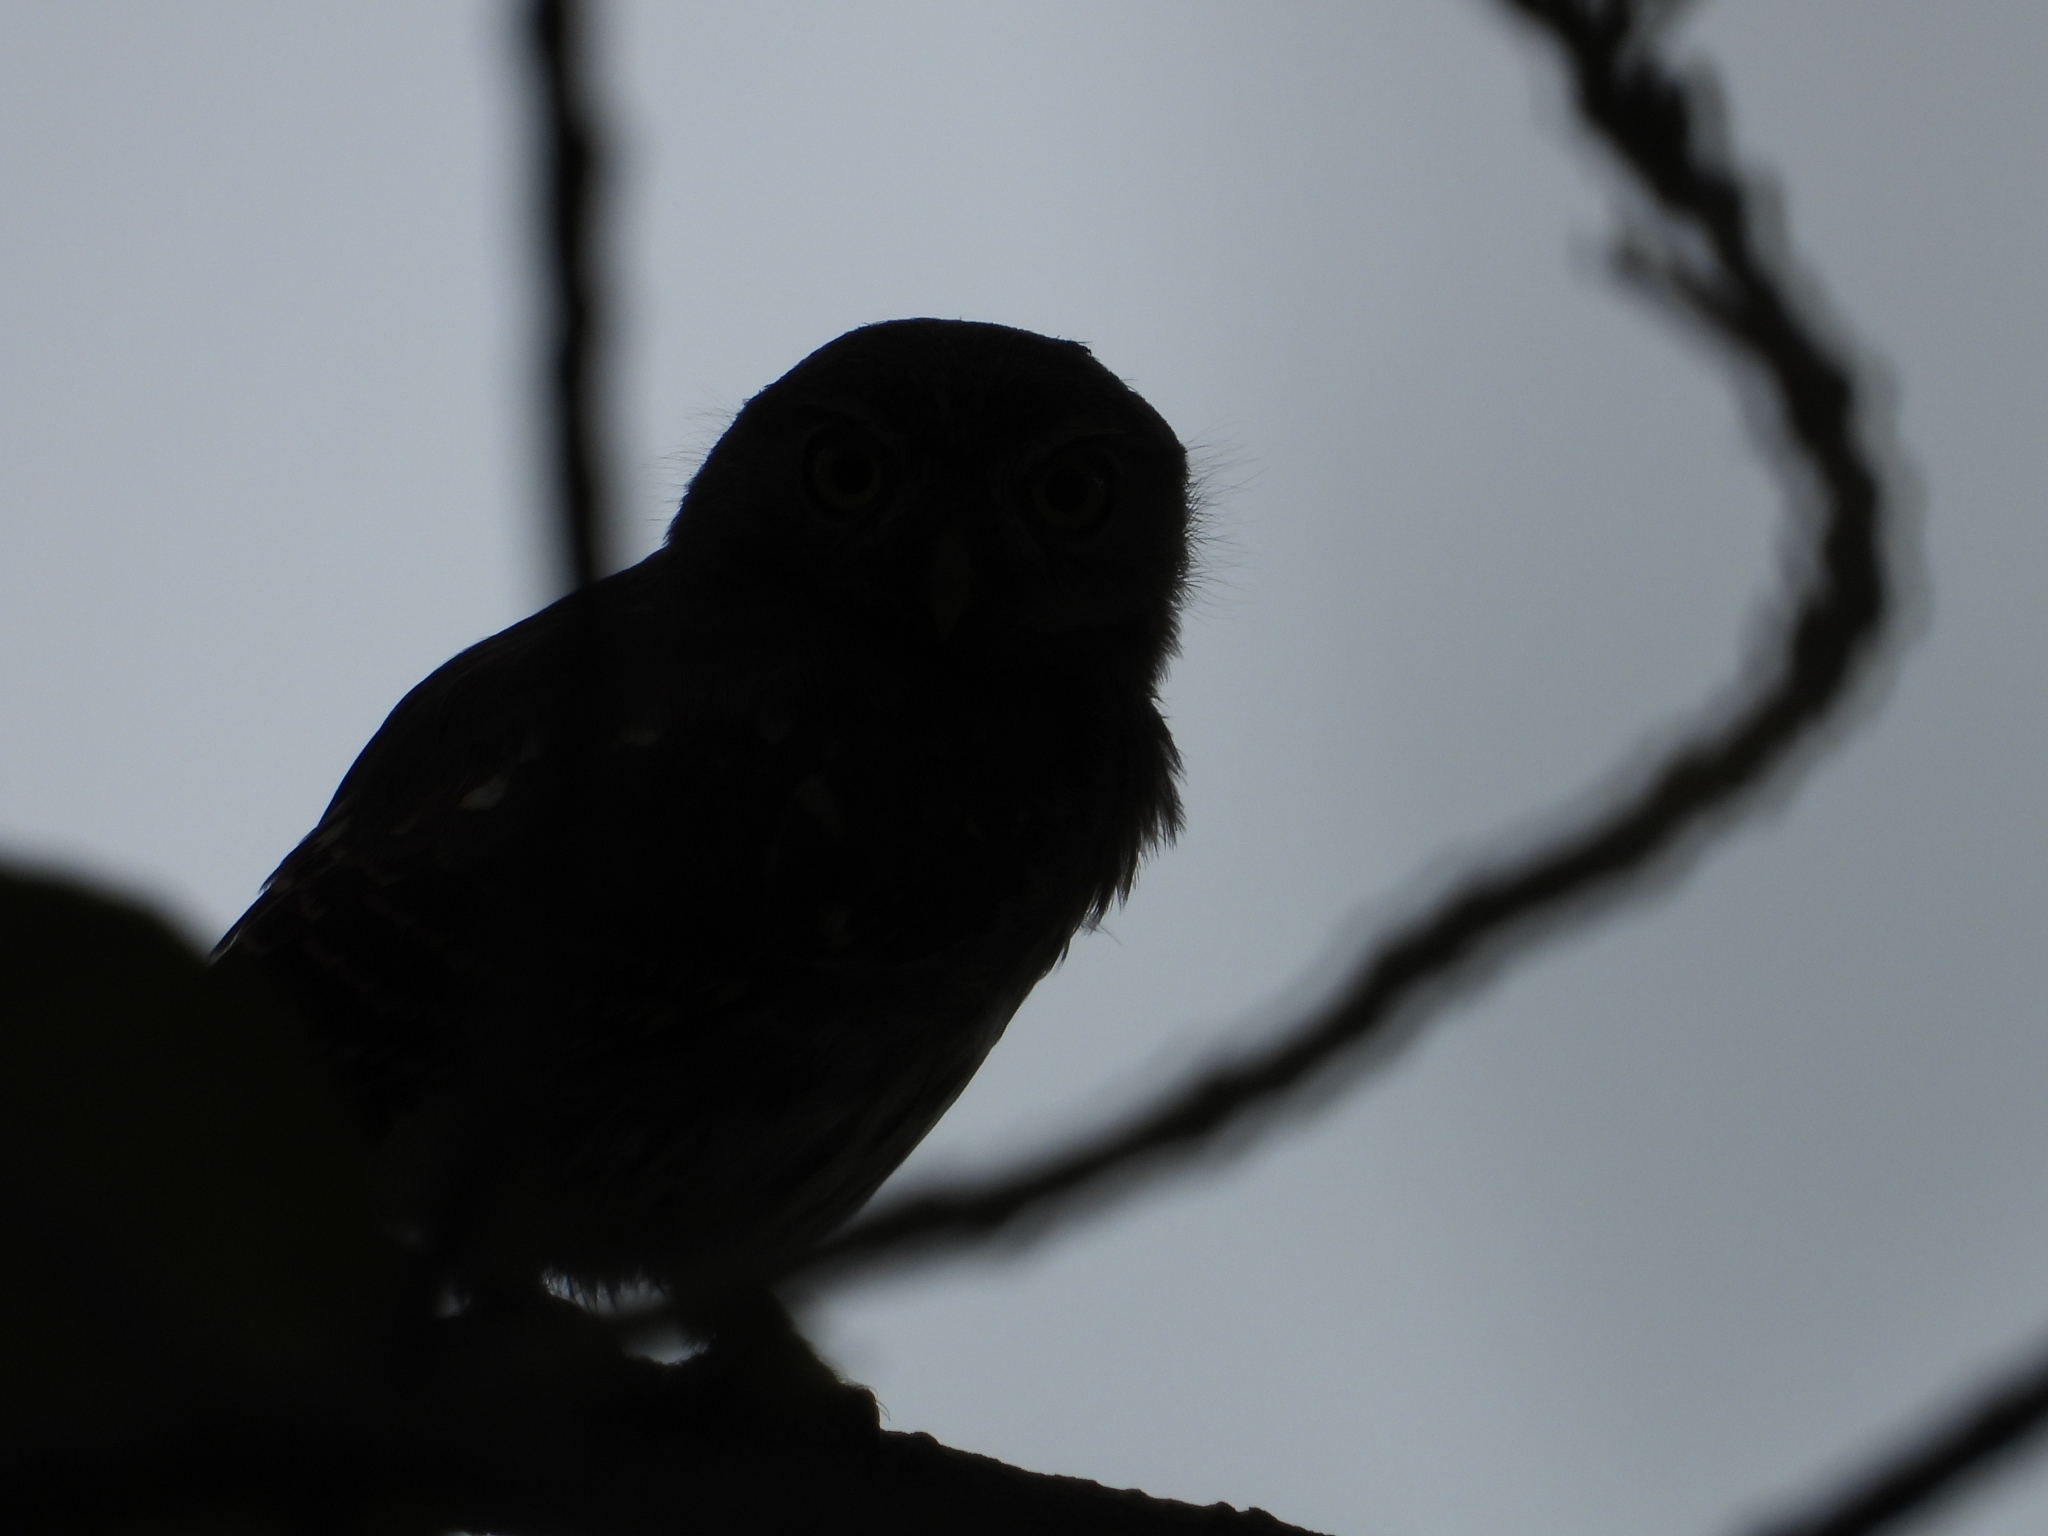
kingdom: Animalia
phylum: Chordata
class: Aves
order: Strigiformes
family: Strigidae
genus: Glaucidium
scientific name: Glaucidium brasilianum
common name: Ferruginous pygmy-owl
